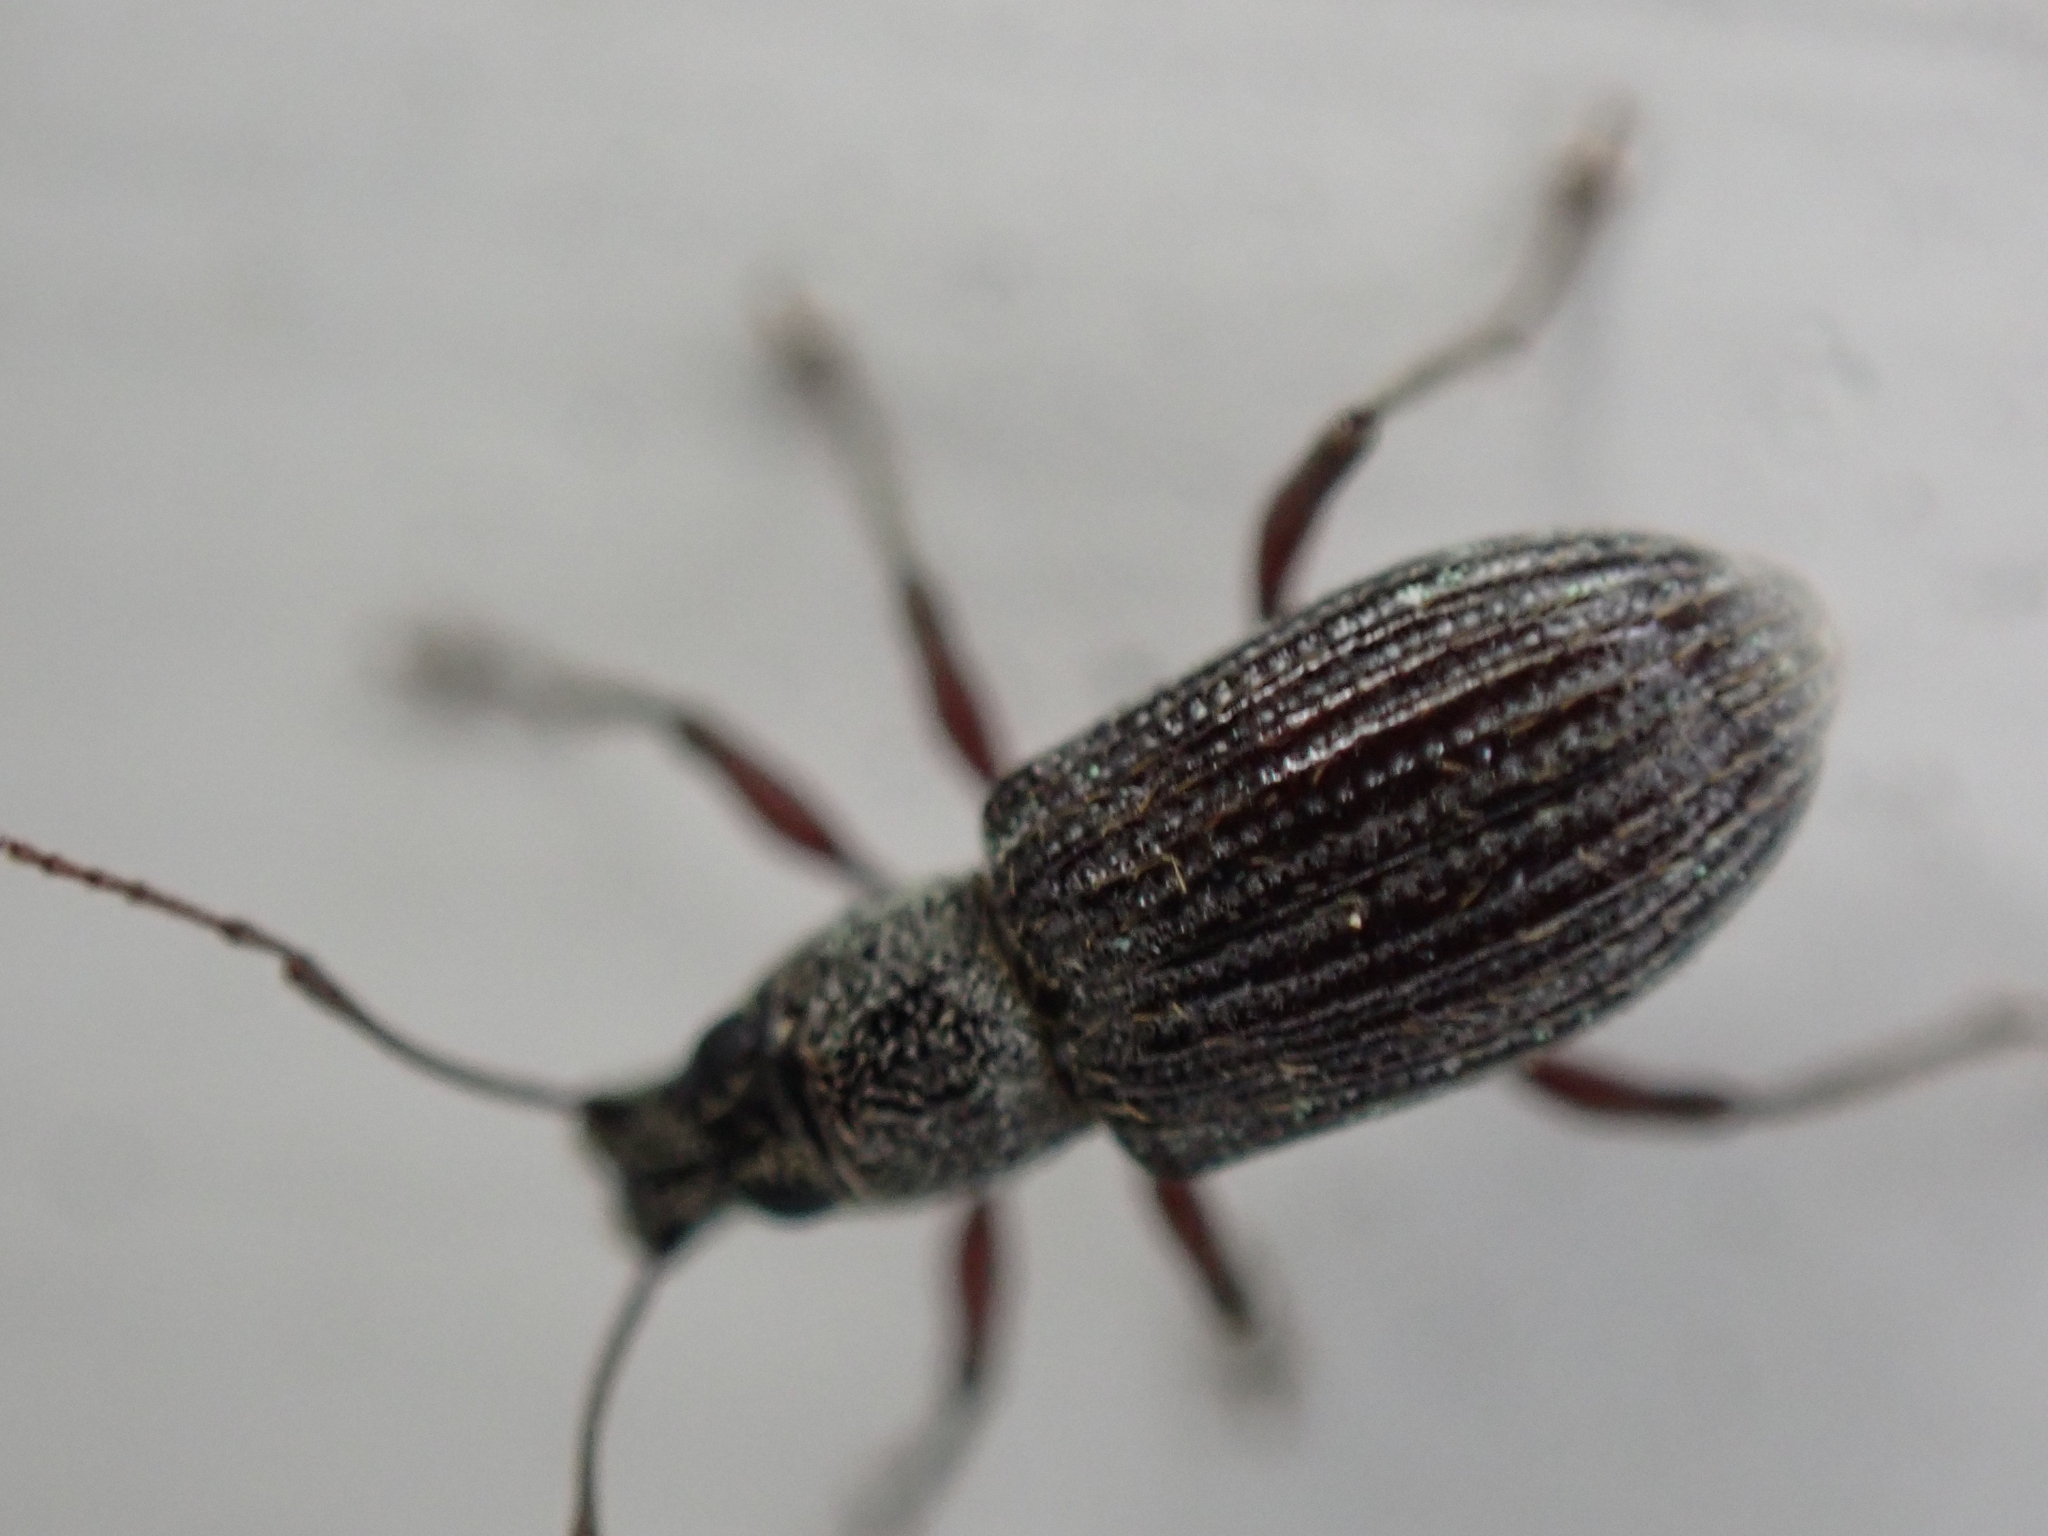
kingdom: Animalia
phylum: Arthropoda
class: Insecta
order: Coleoptera
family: Curculionidae
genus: Cyrtepistomus
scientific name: Cyrtepistomus castaneus
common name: Weevil
